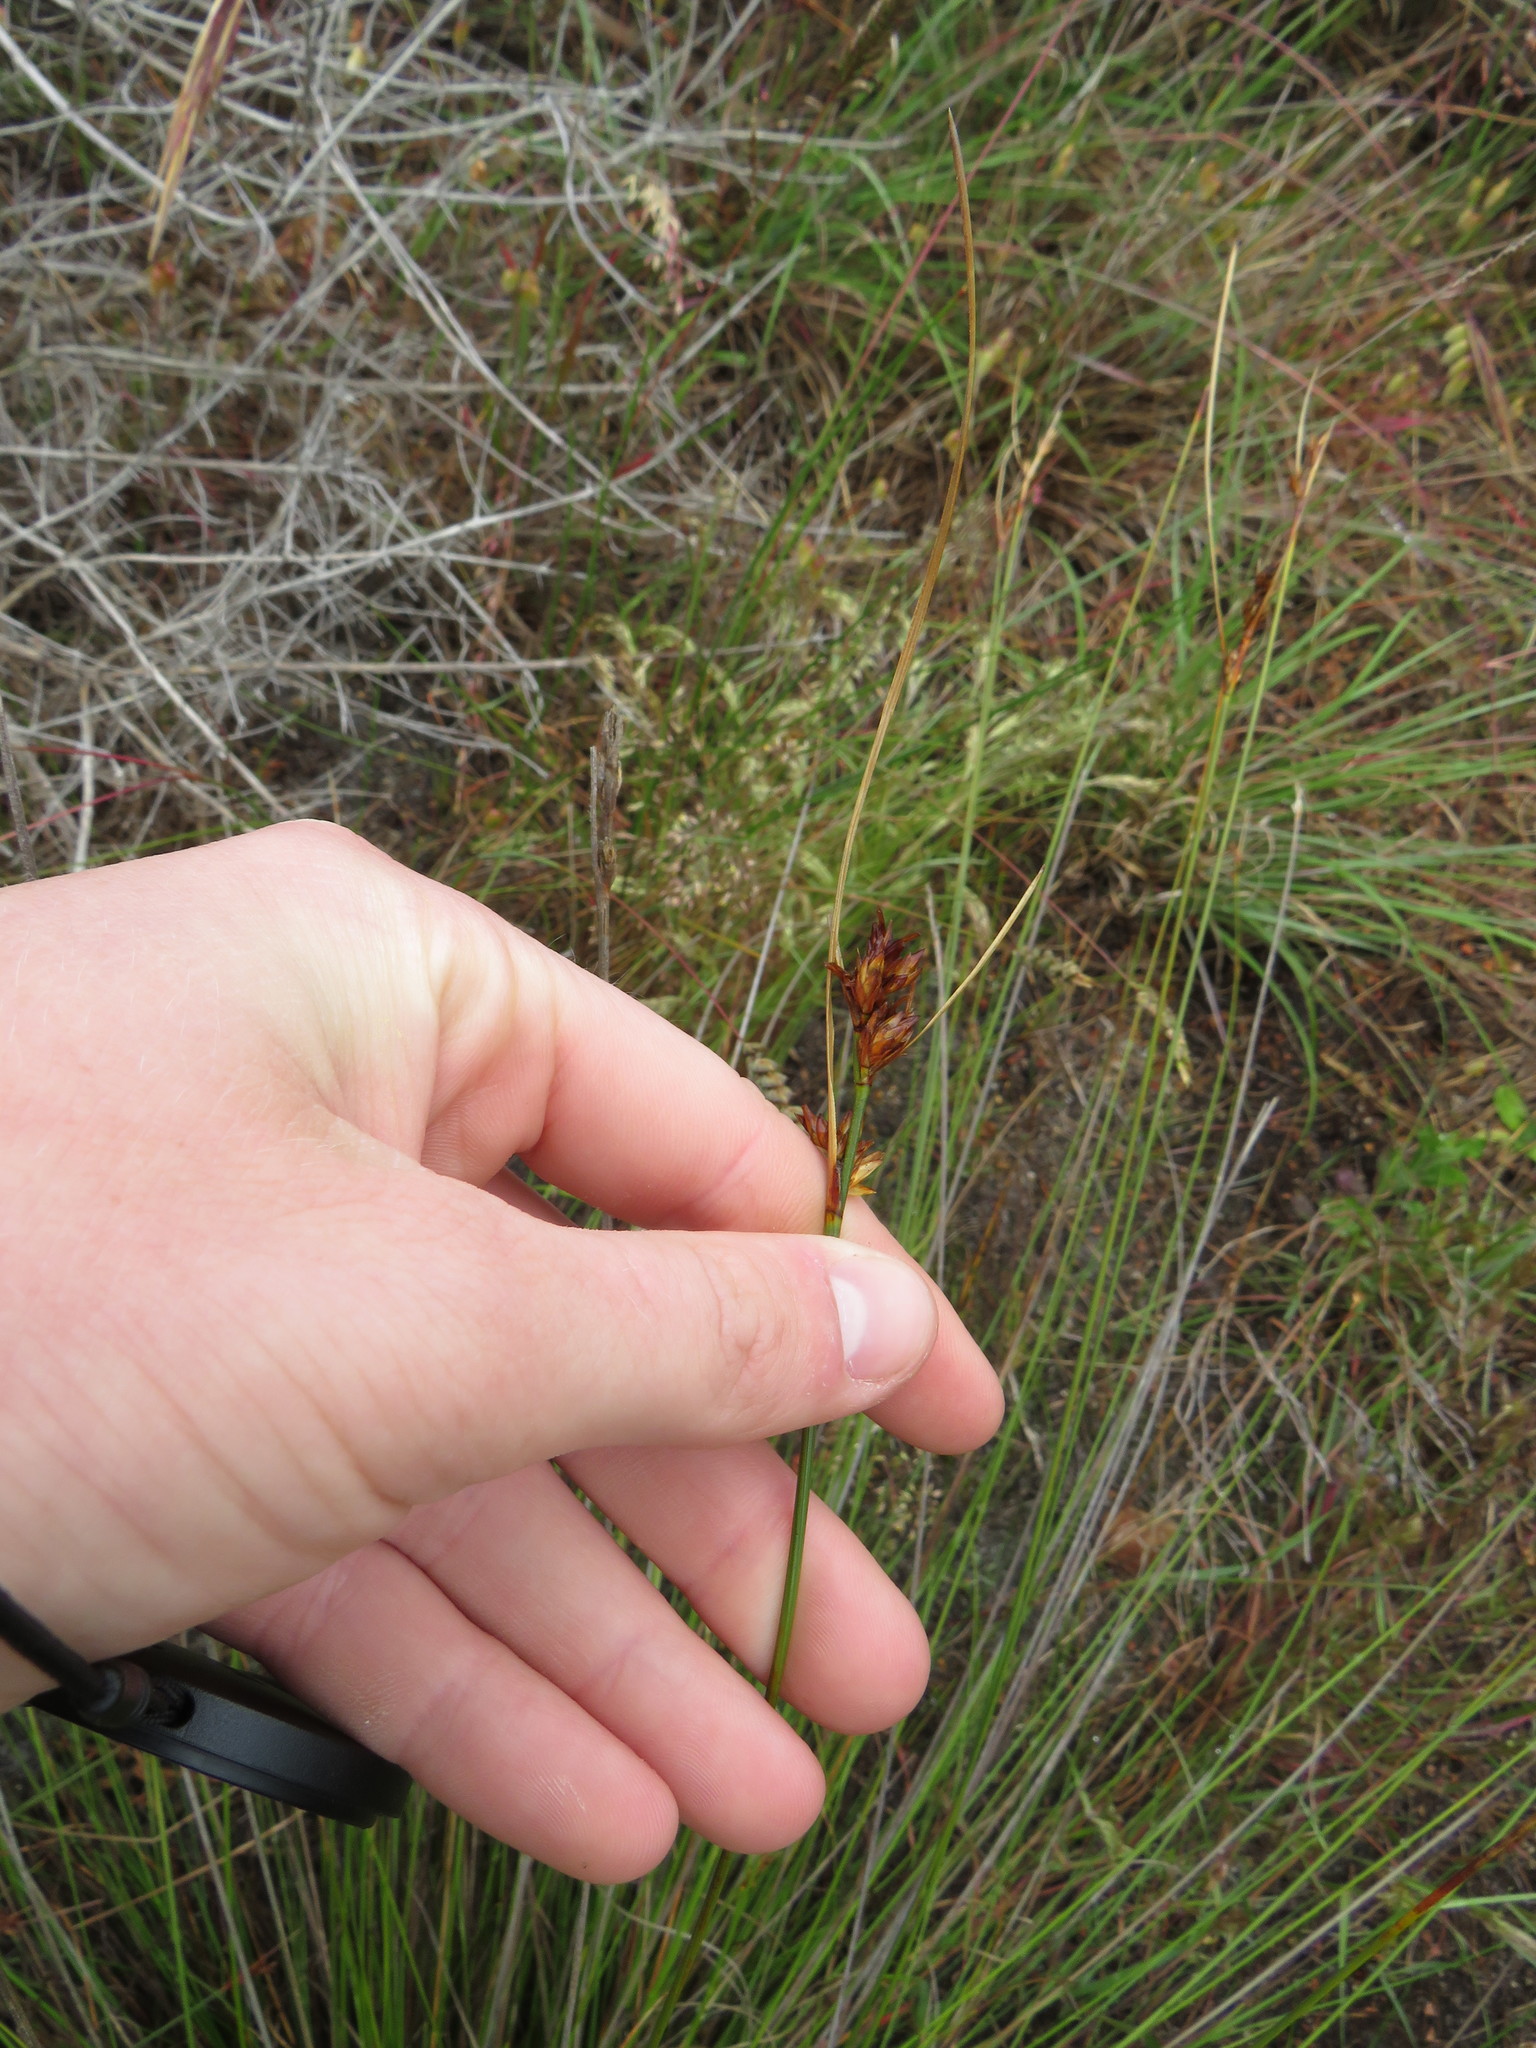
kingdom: Plantae
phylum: Tracheophyta
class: Liliopsida
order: Poales
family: Cyperaceae
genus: Schoenus
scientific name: Schoenus compar
